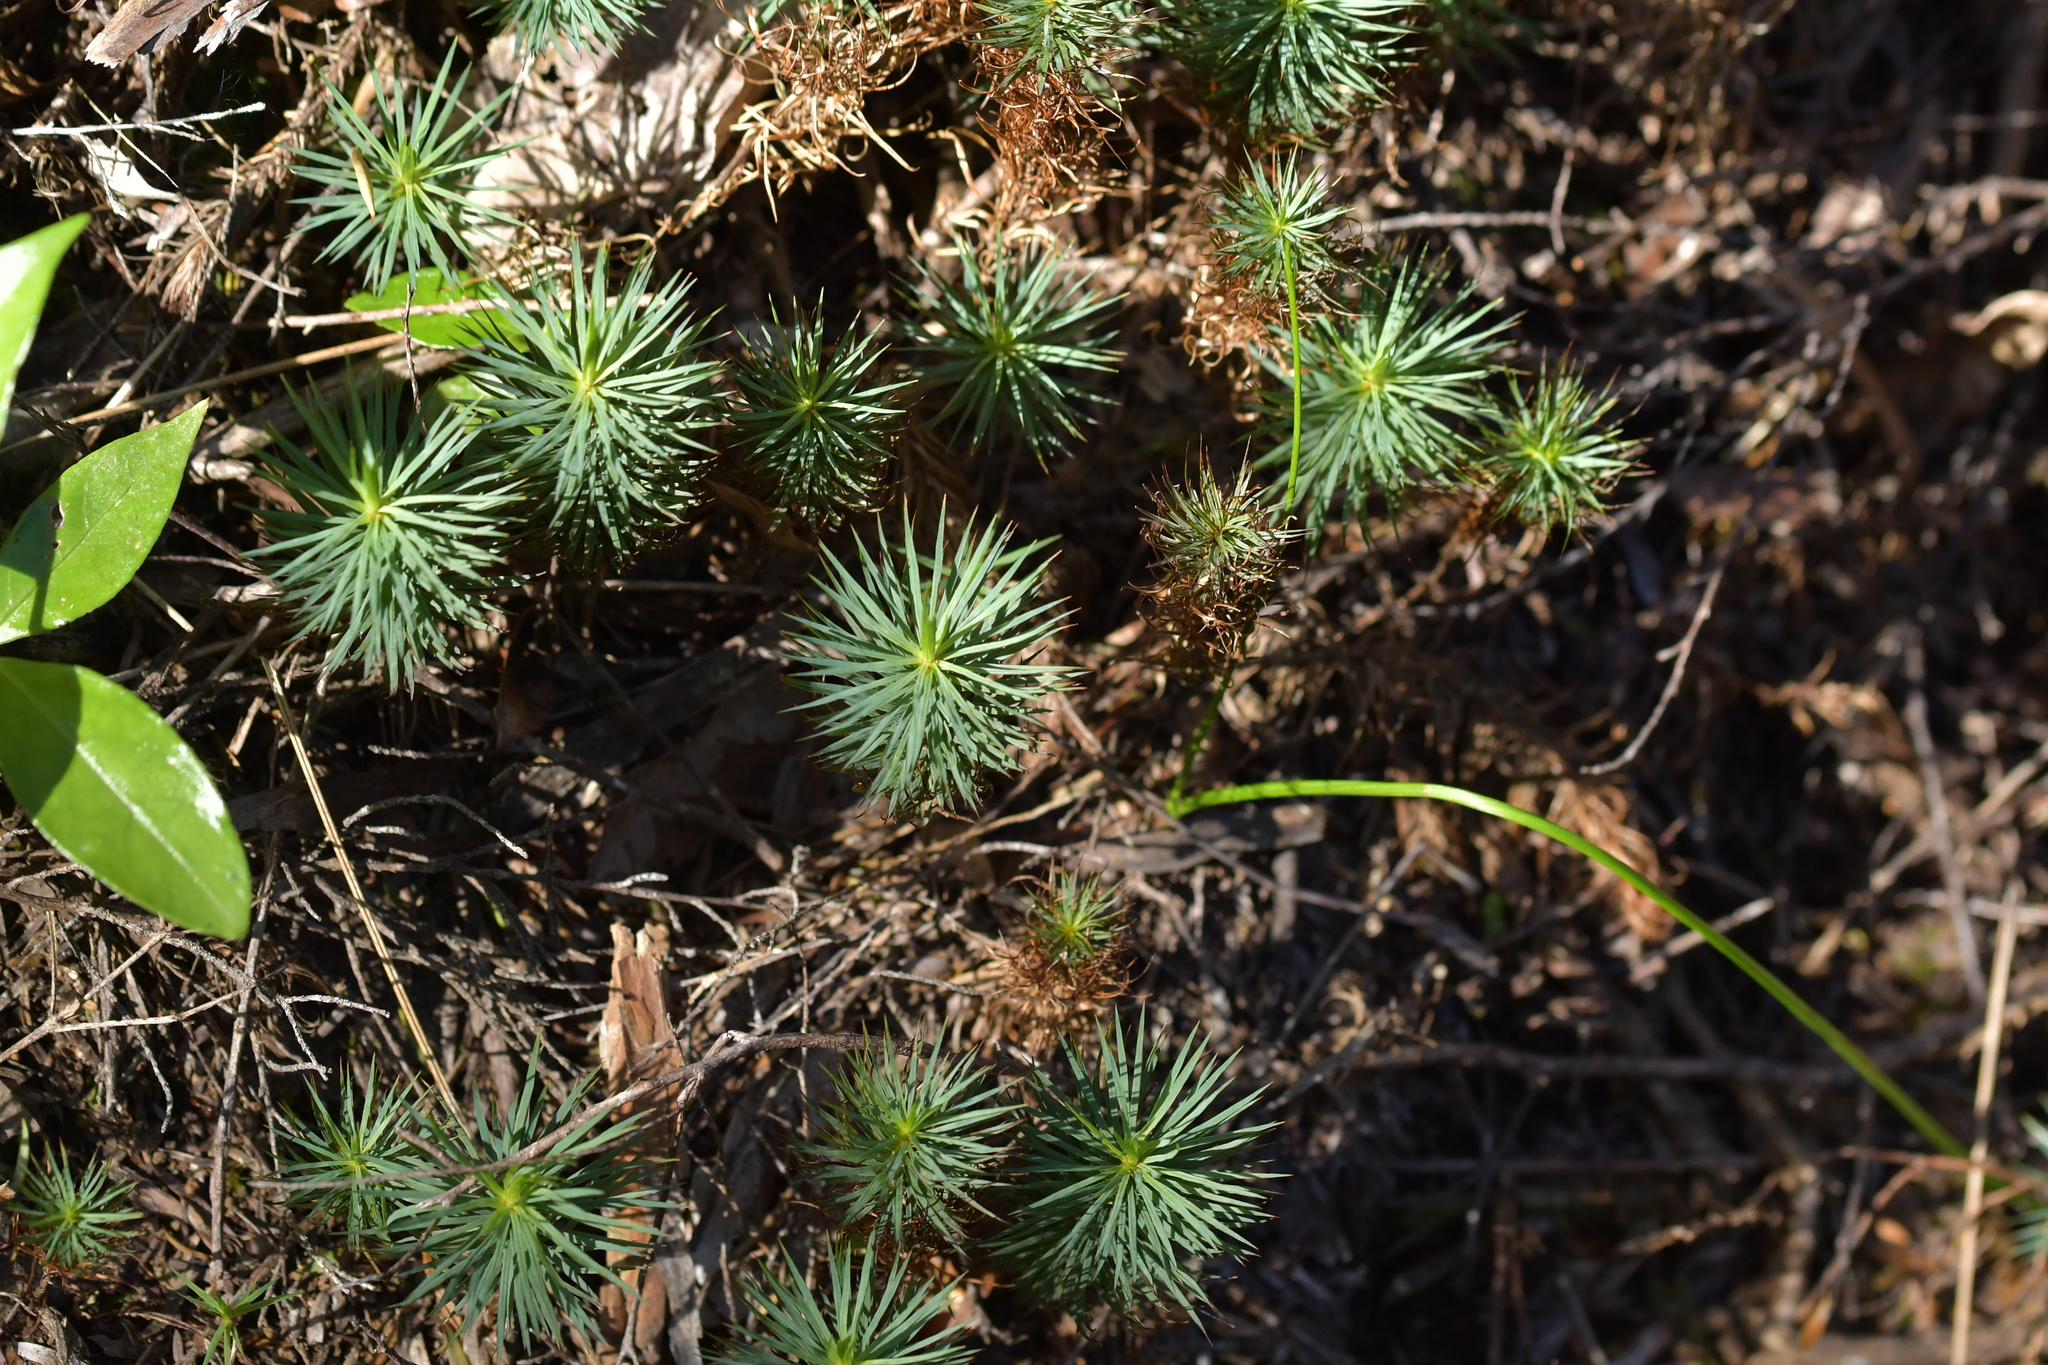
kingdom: Plantae
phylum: Bryophyta
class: Polytrichopsida
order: Polytrichales
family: Polytrichaceae
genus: Dawsonia
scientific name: Dawsonia superba
